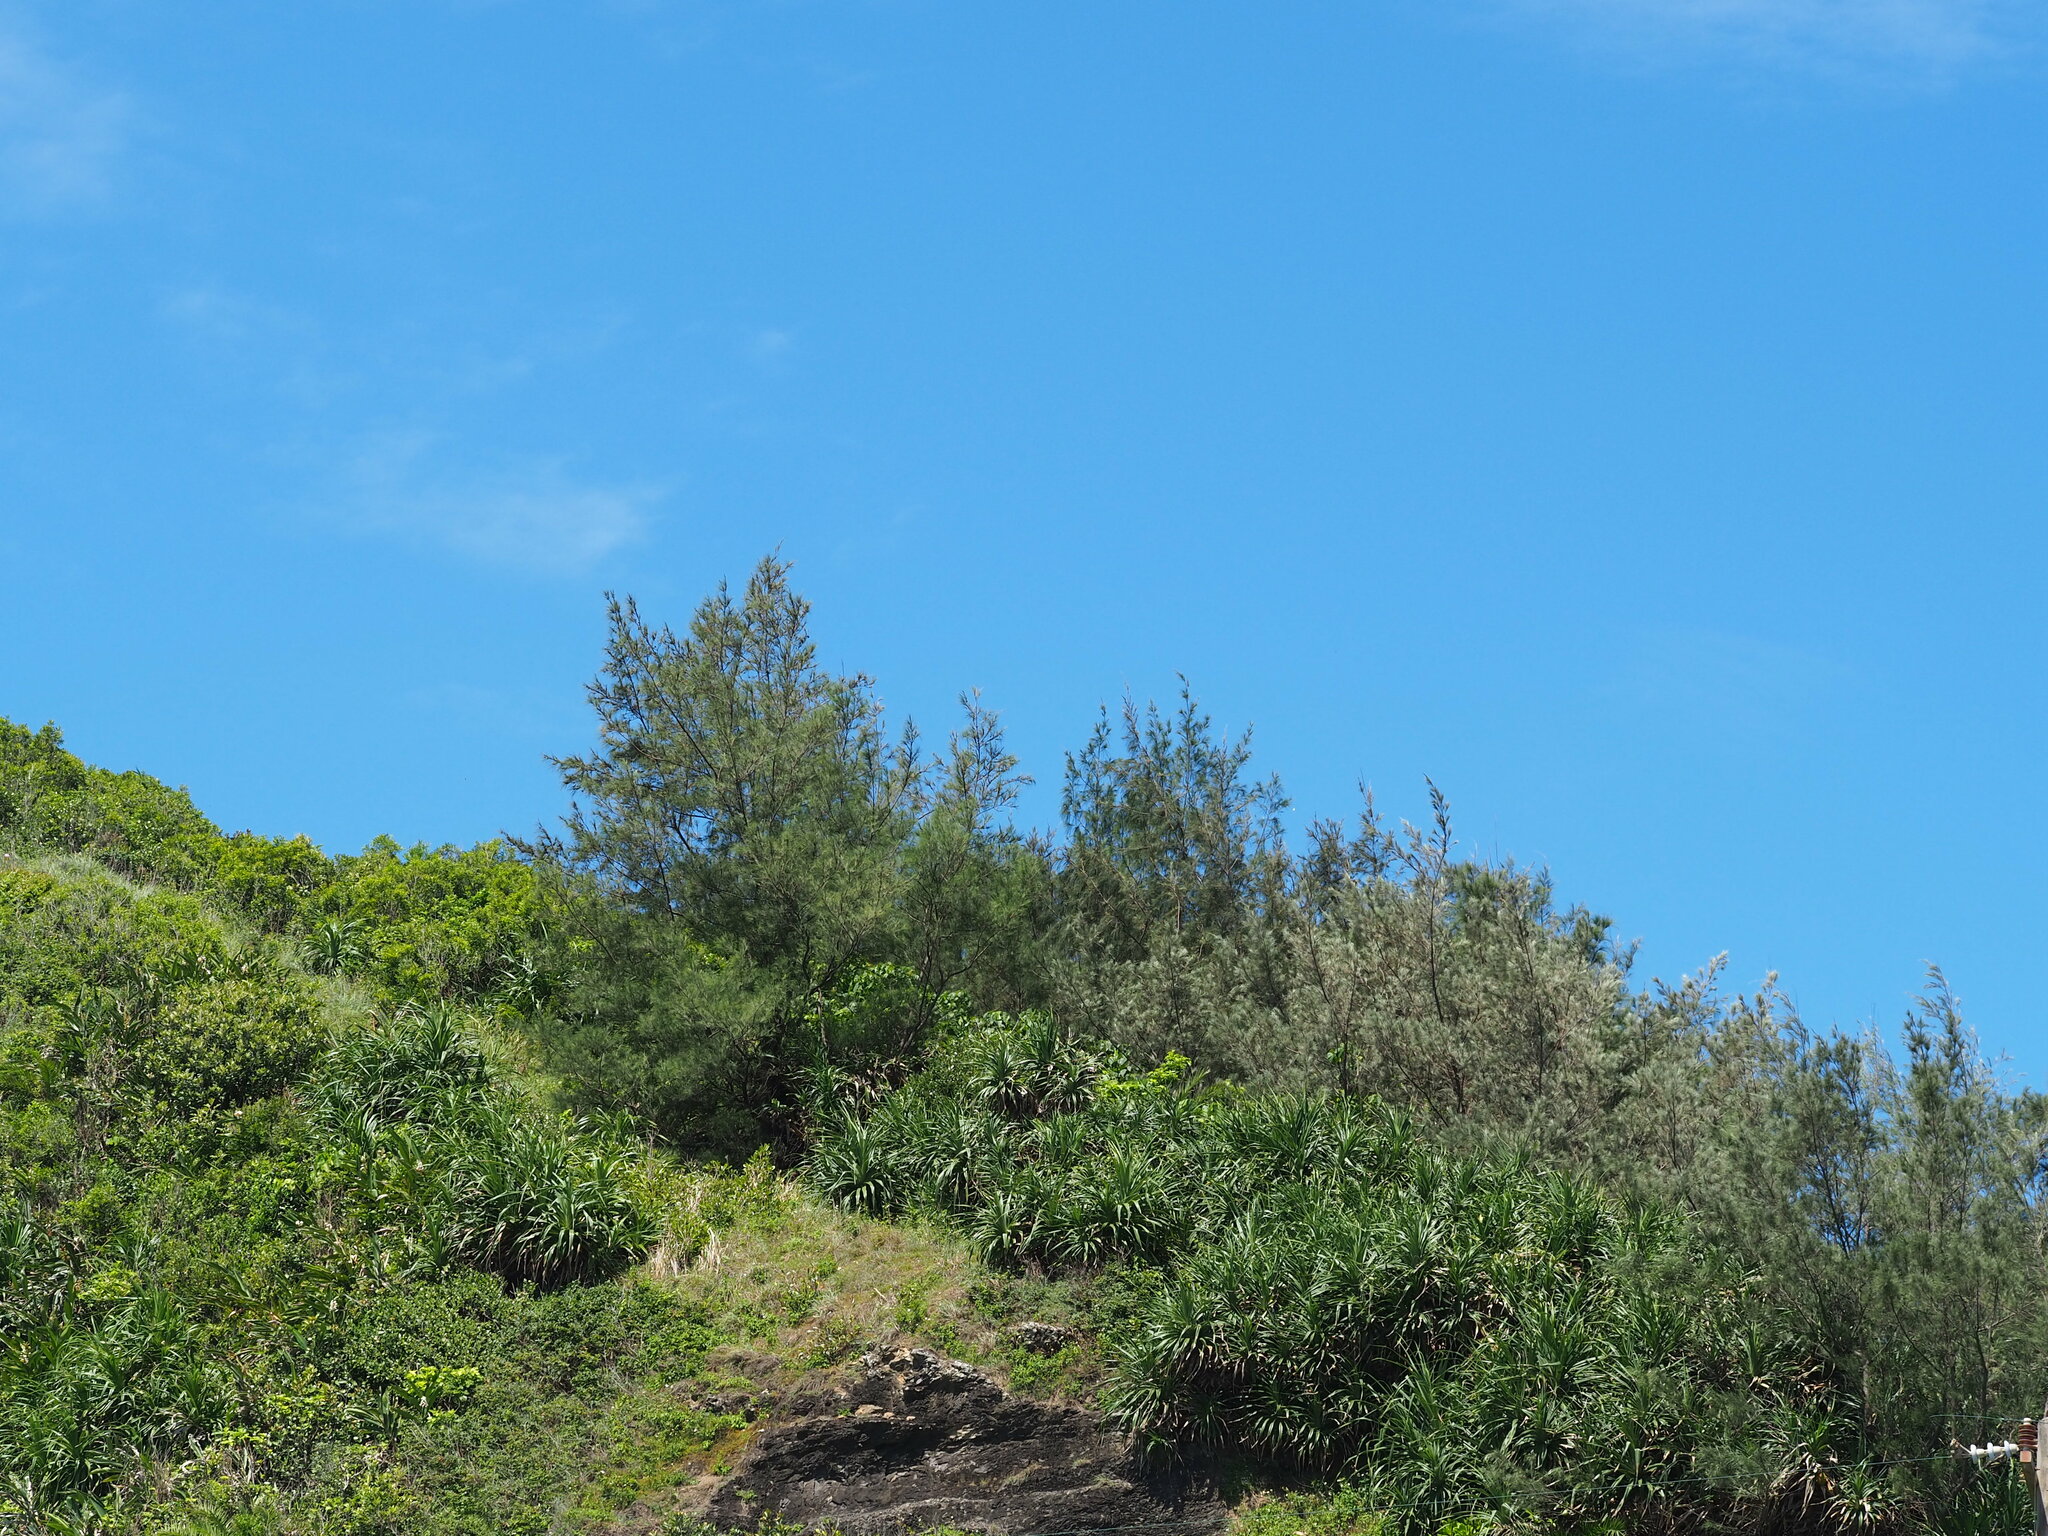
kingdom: Plantae
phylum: Tracheophyta
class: Magnoliopsida
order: Fagales
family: Casuarinaceae
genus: Casuarina
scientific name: Casuarina equisetifolia
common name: Beach sheoak
